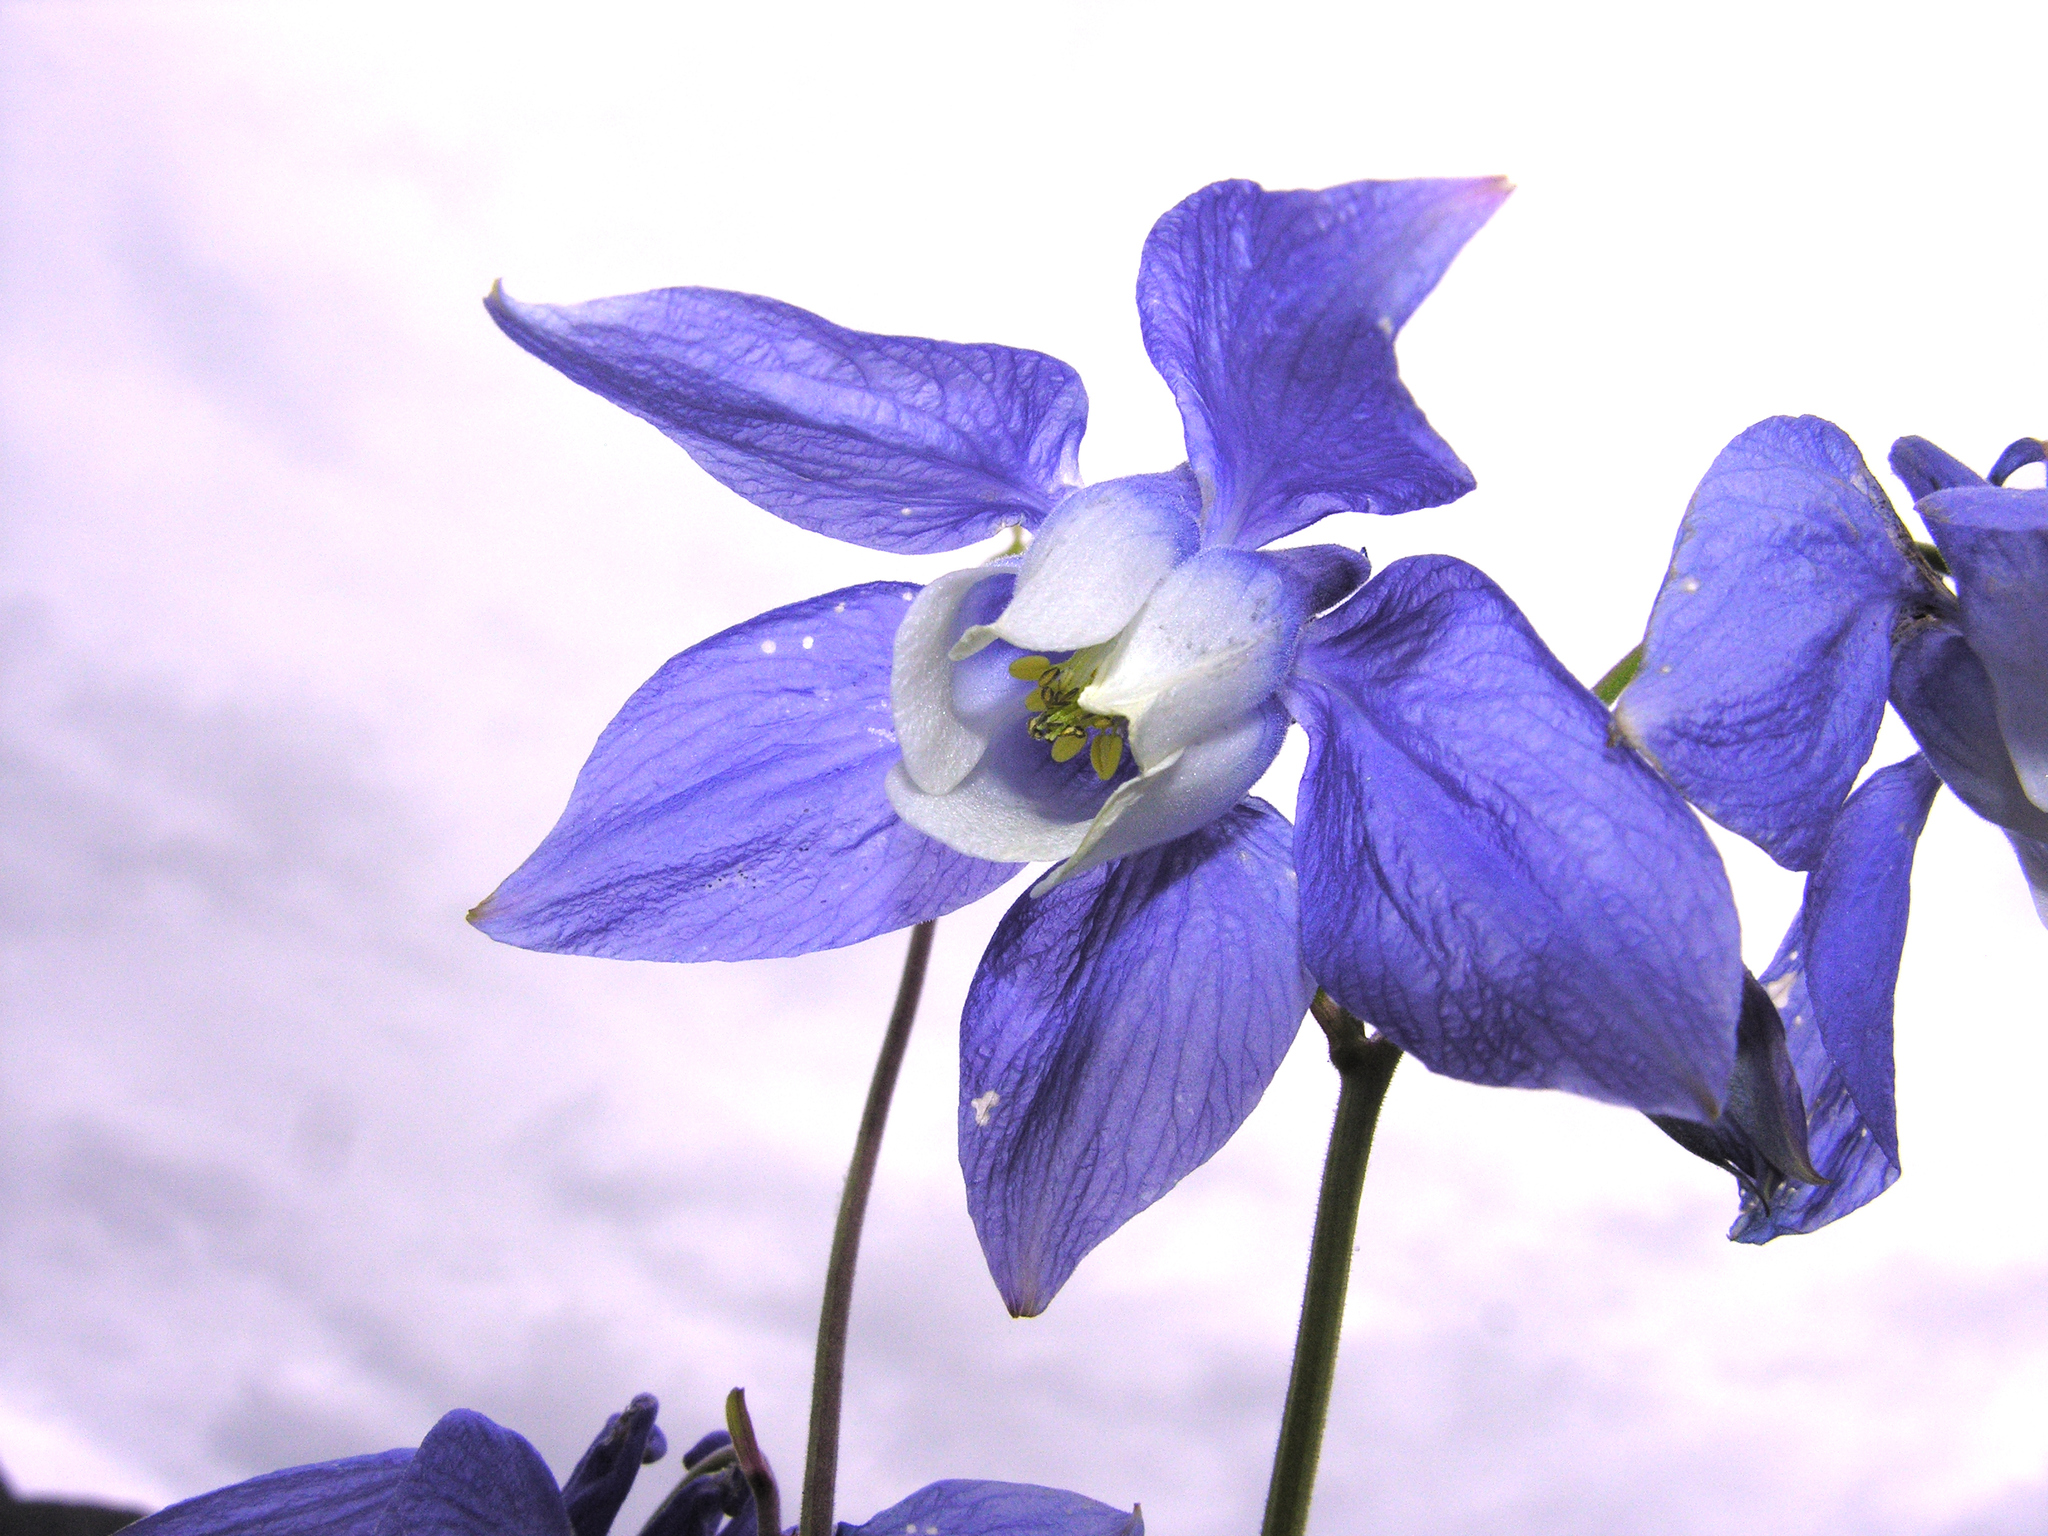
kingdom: Plantae
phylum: Tracheophyta
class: Magnoliopsida
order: Ranunculales
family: Ranunculaceae
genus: Aquilegia
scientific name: Aquilegia olympica
